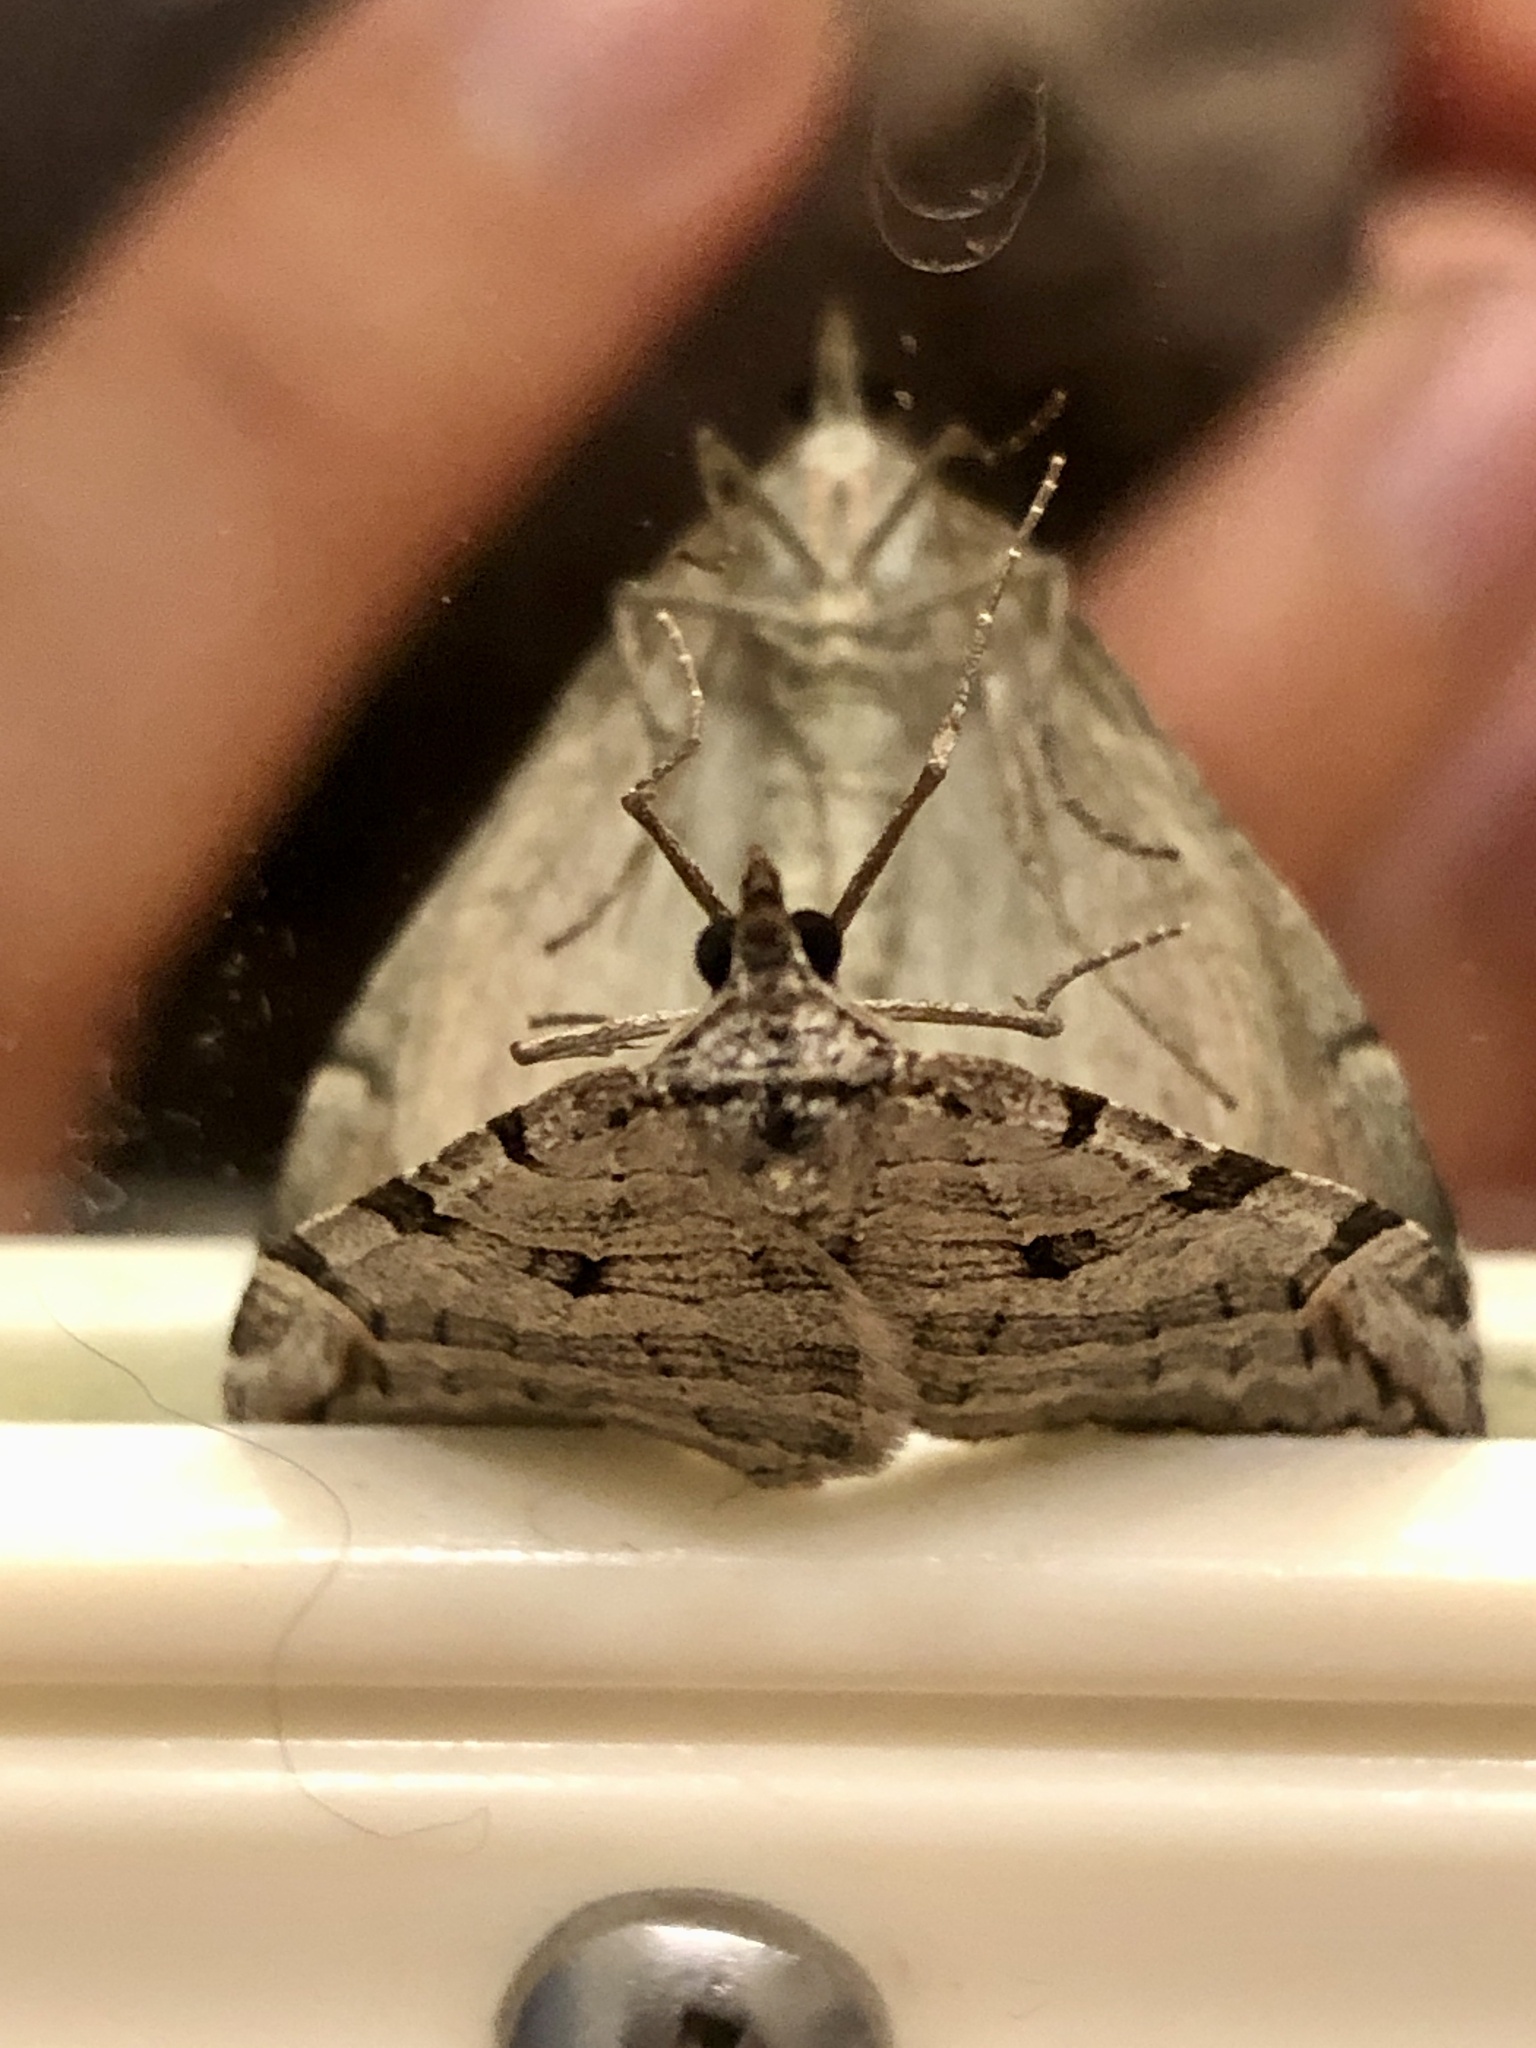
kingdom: Animalia
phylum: Arthropoda
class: Insecta
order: Lepidoptera
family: Geometridae
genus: Aplocera
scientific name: Aplocera plagiata
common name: Treble-bar
